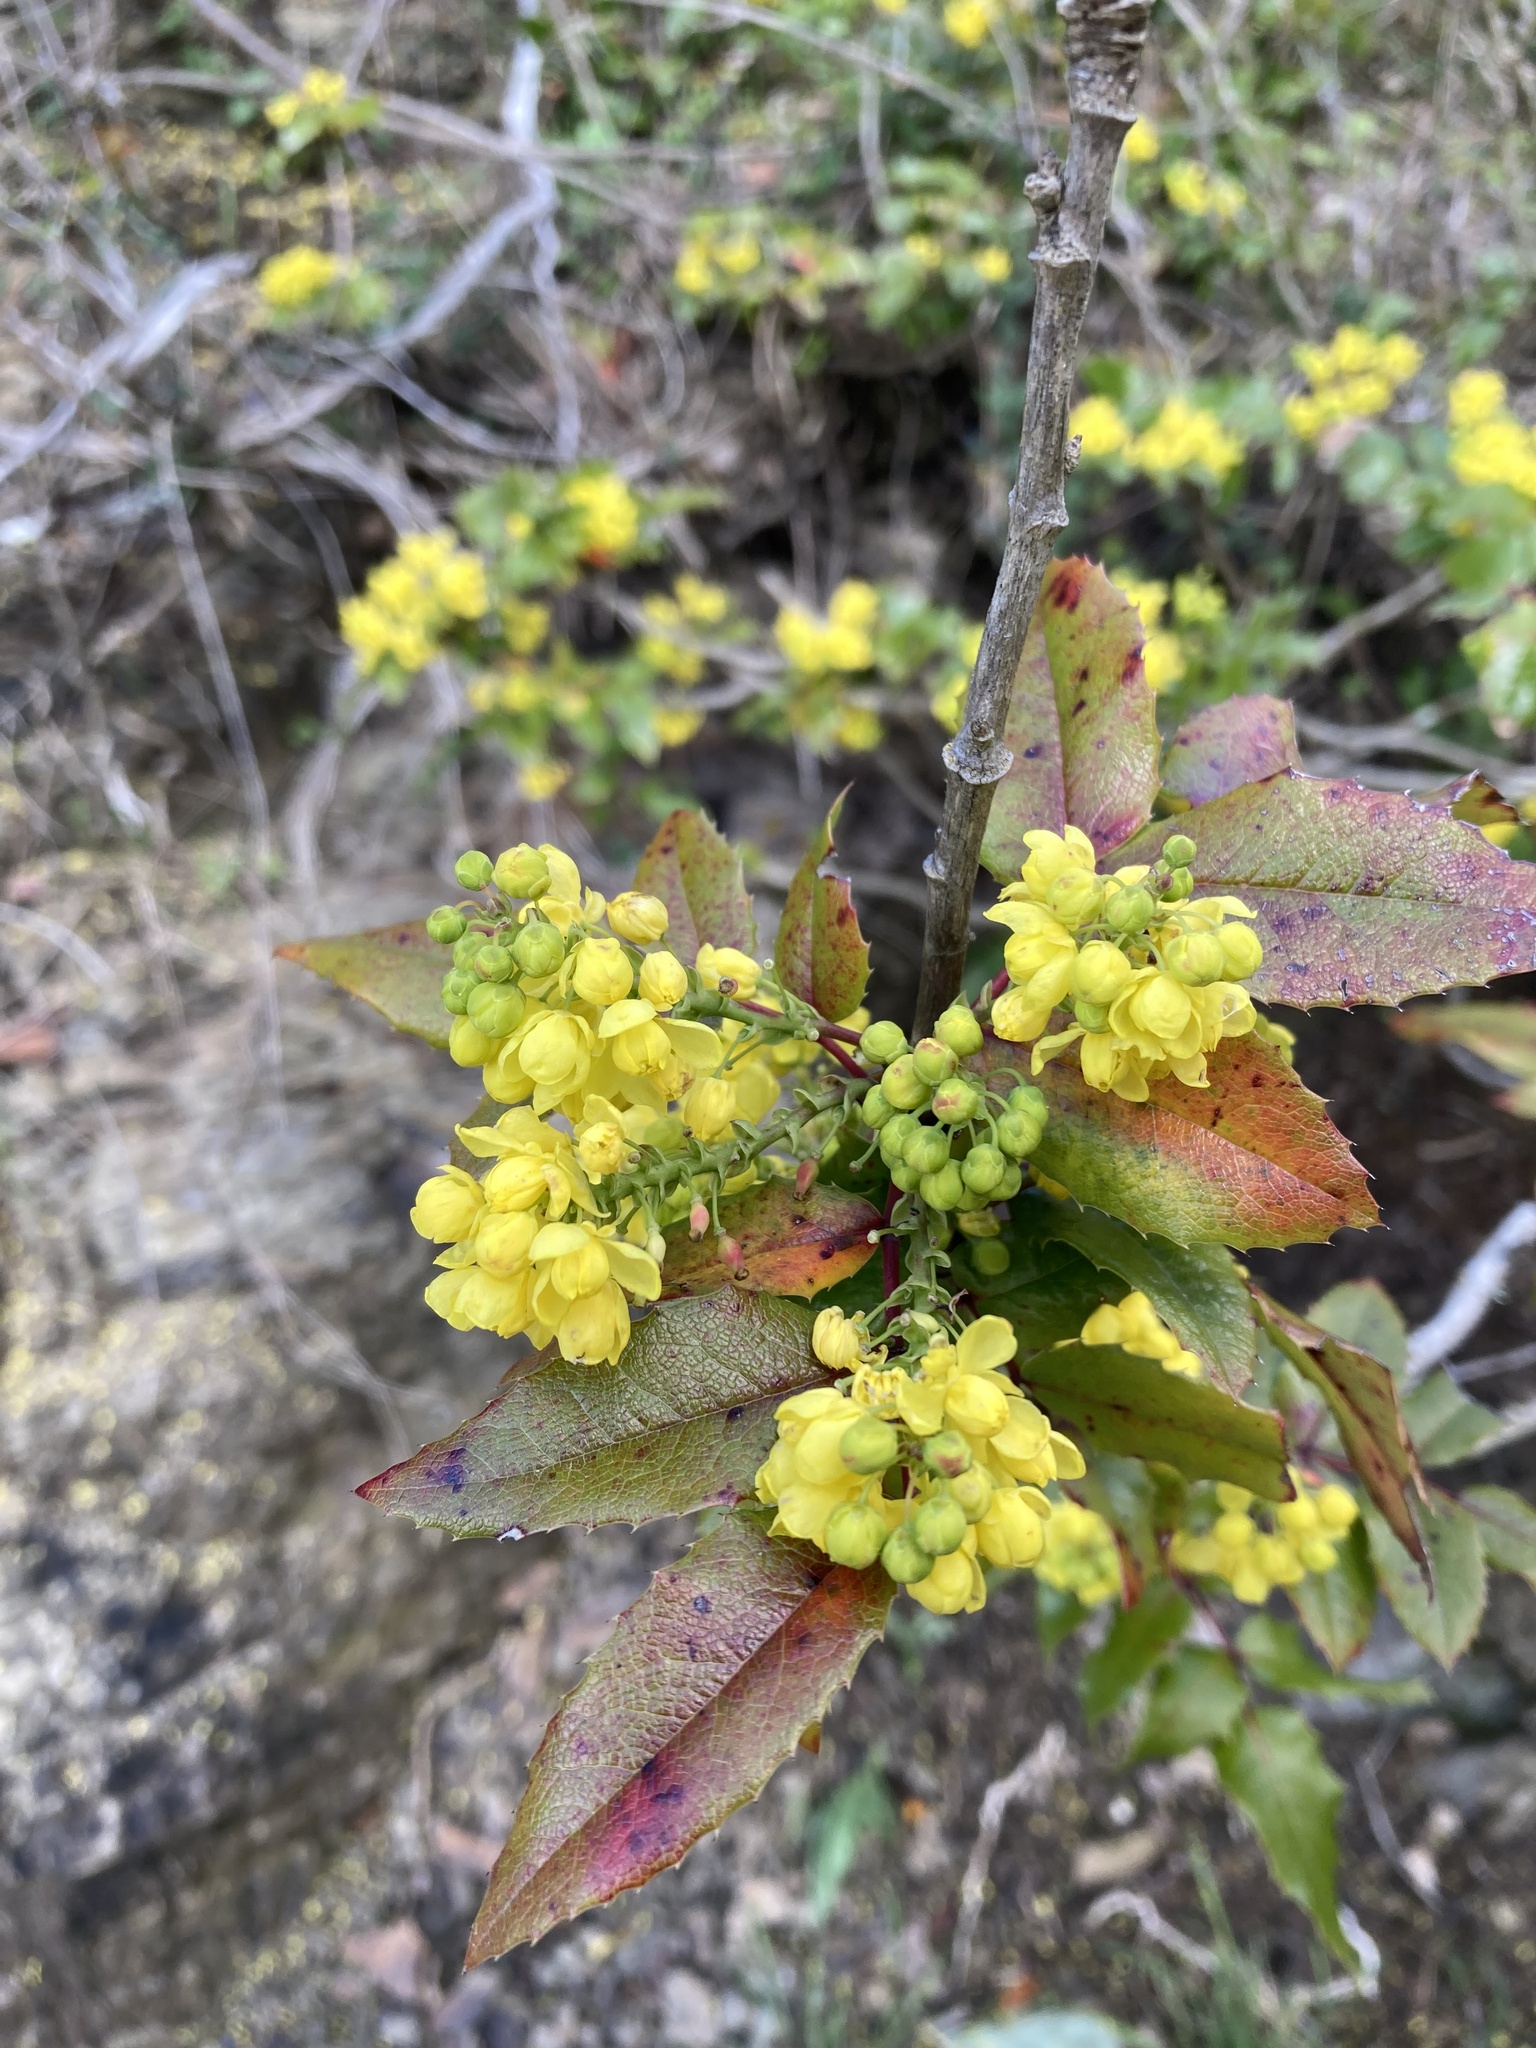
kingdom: Plantae
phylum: Tracheophyta
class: Magnoliopsida
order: Ranunculales
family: Berberidaceae
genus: Mahonia
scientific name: Mahonia aquifolium
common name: Oregon-grape
